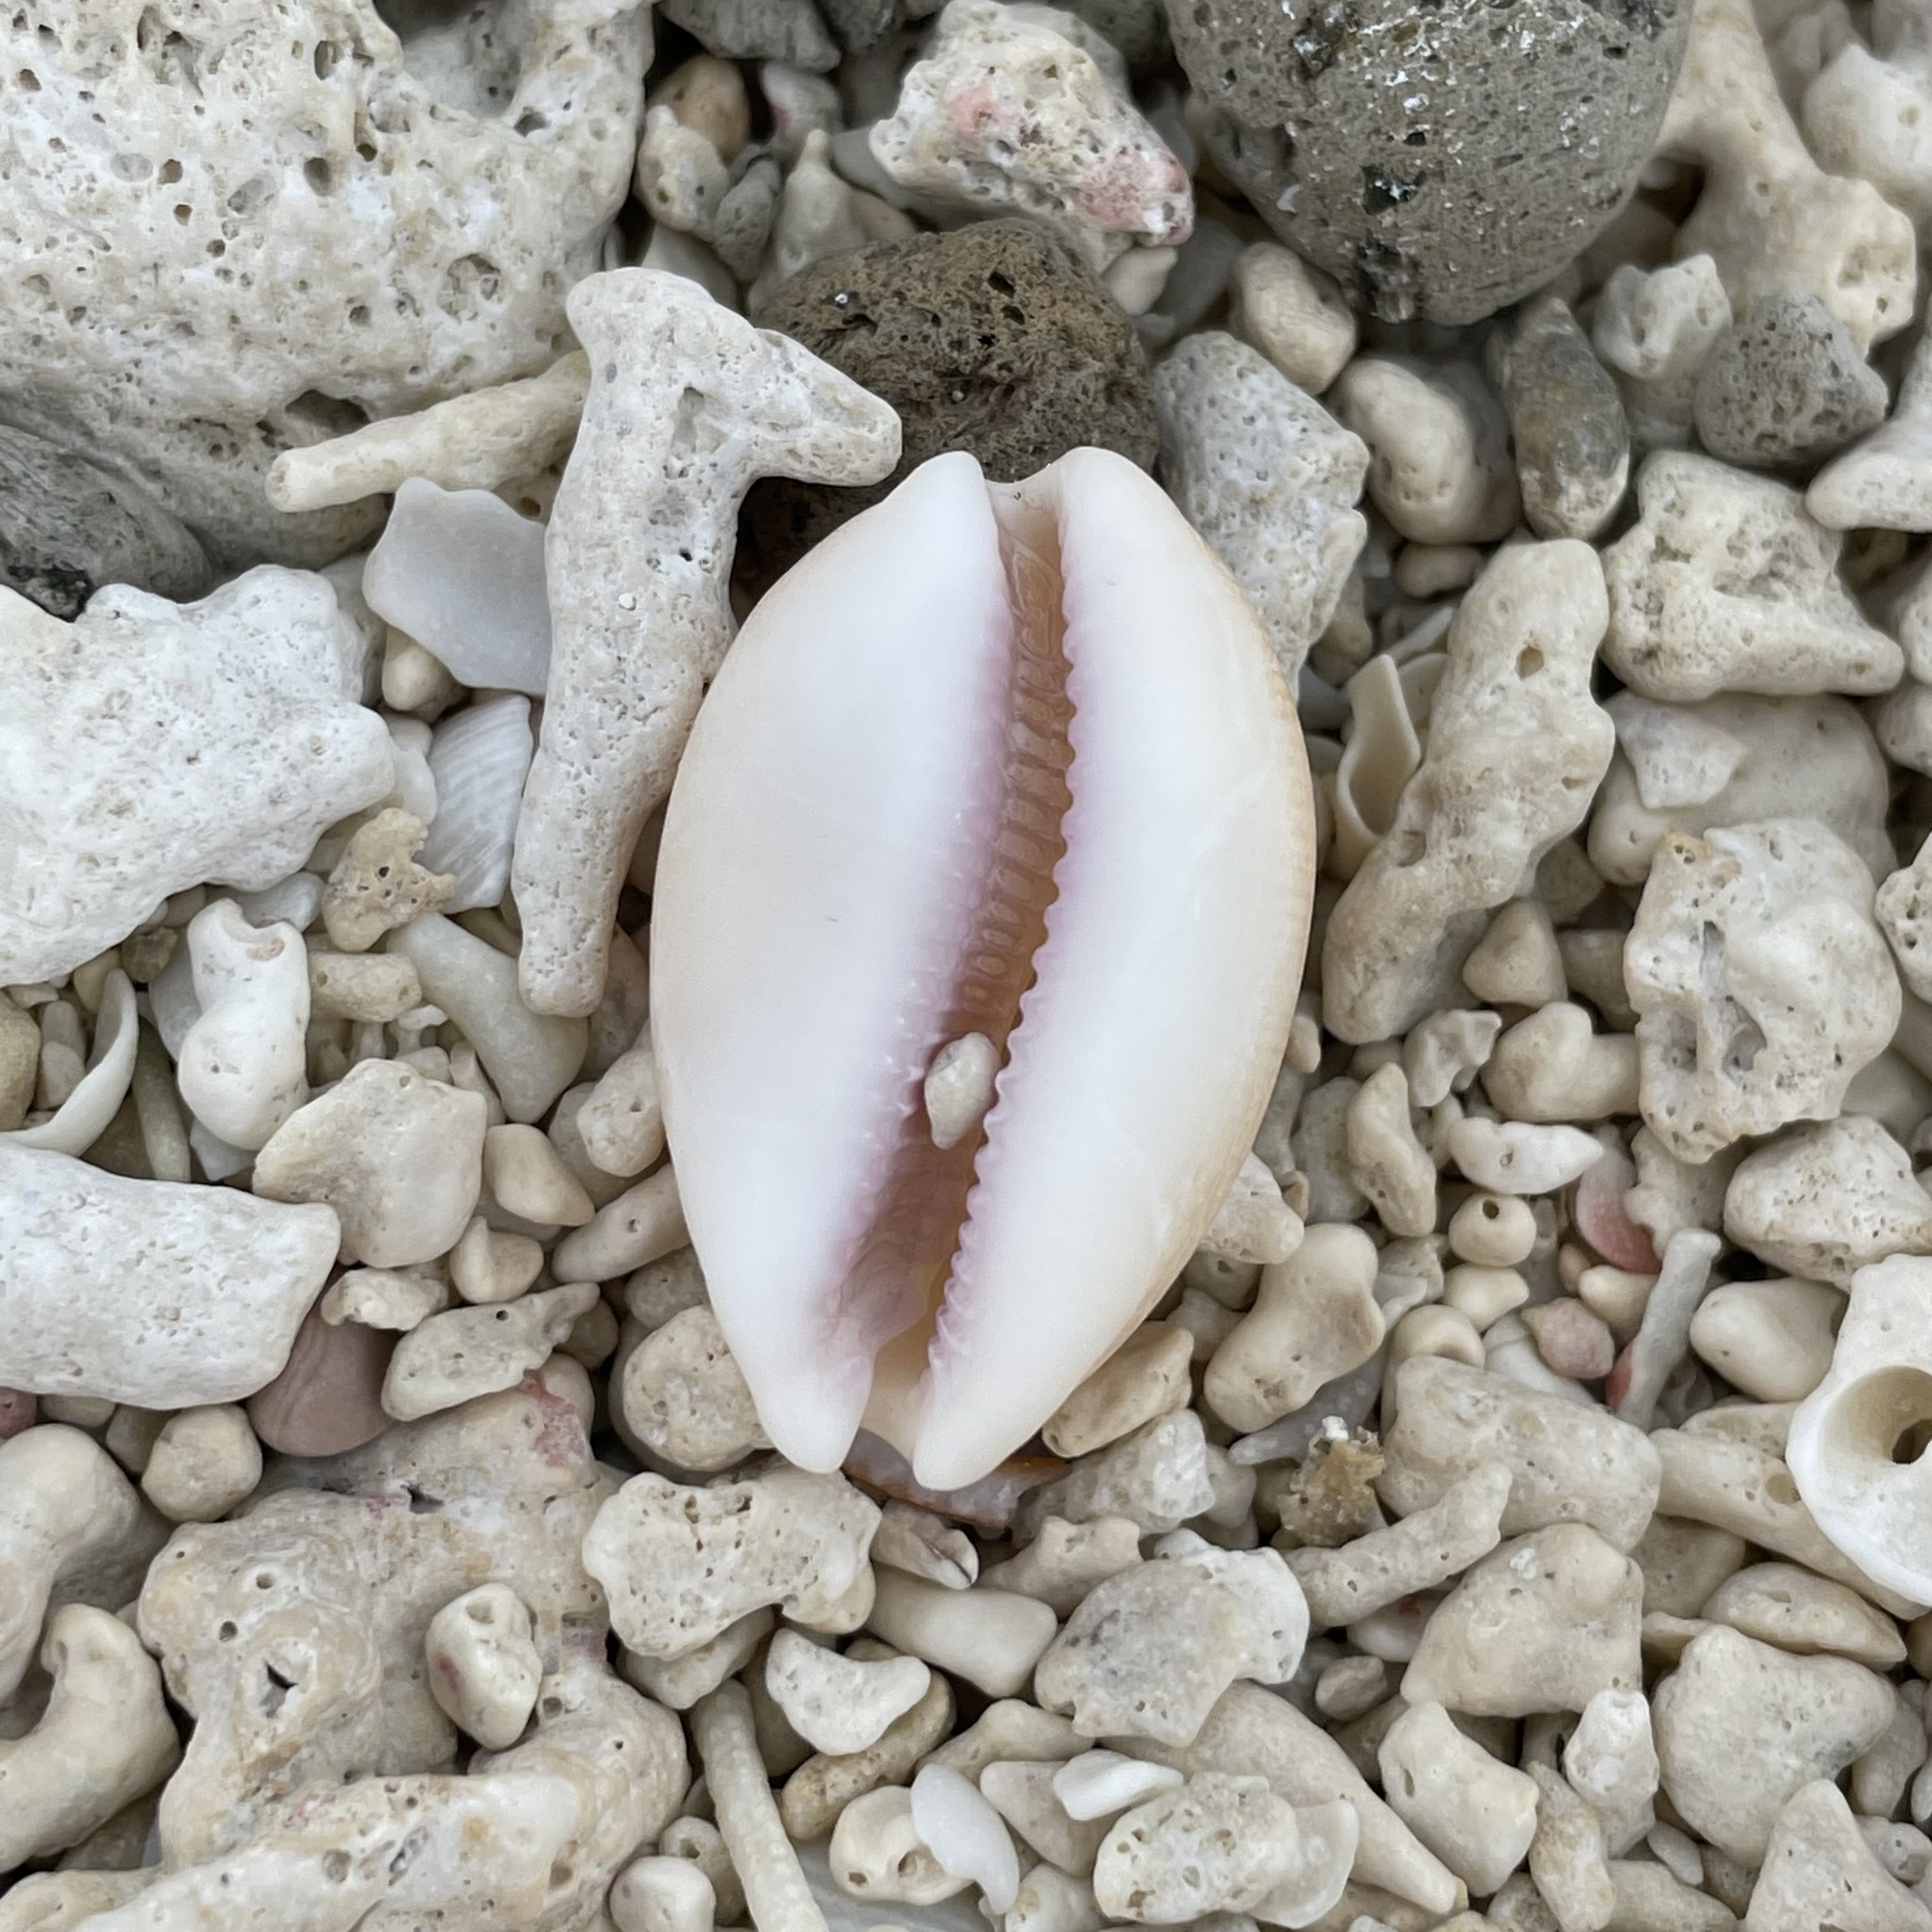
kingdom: Animalia
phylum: Mollusca
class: Gastropoda
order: Littorinimorpha
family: Cypraeidae
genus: Lyncina
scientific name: Lyncina carneola
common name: Purple-mouthed cowry
